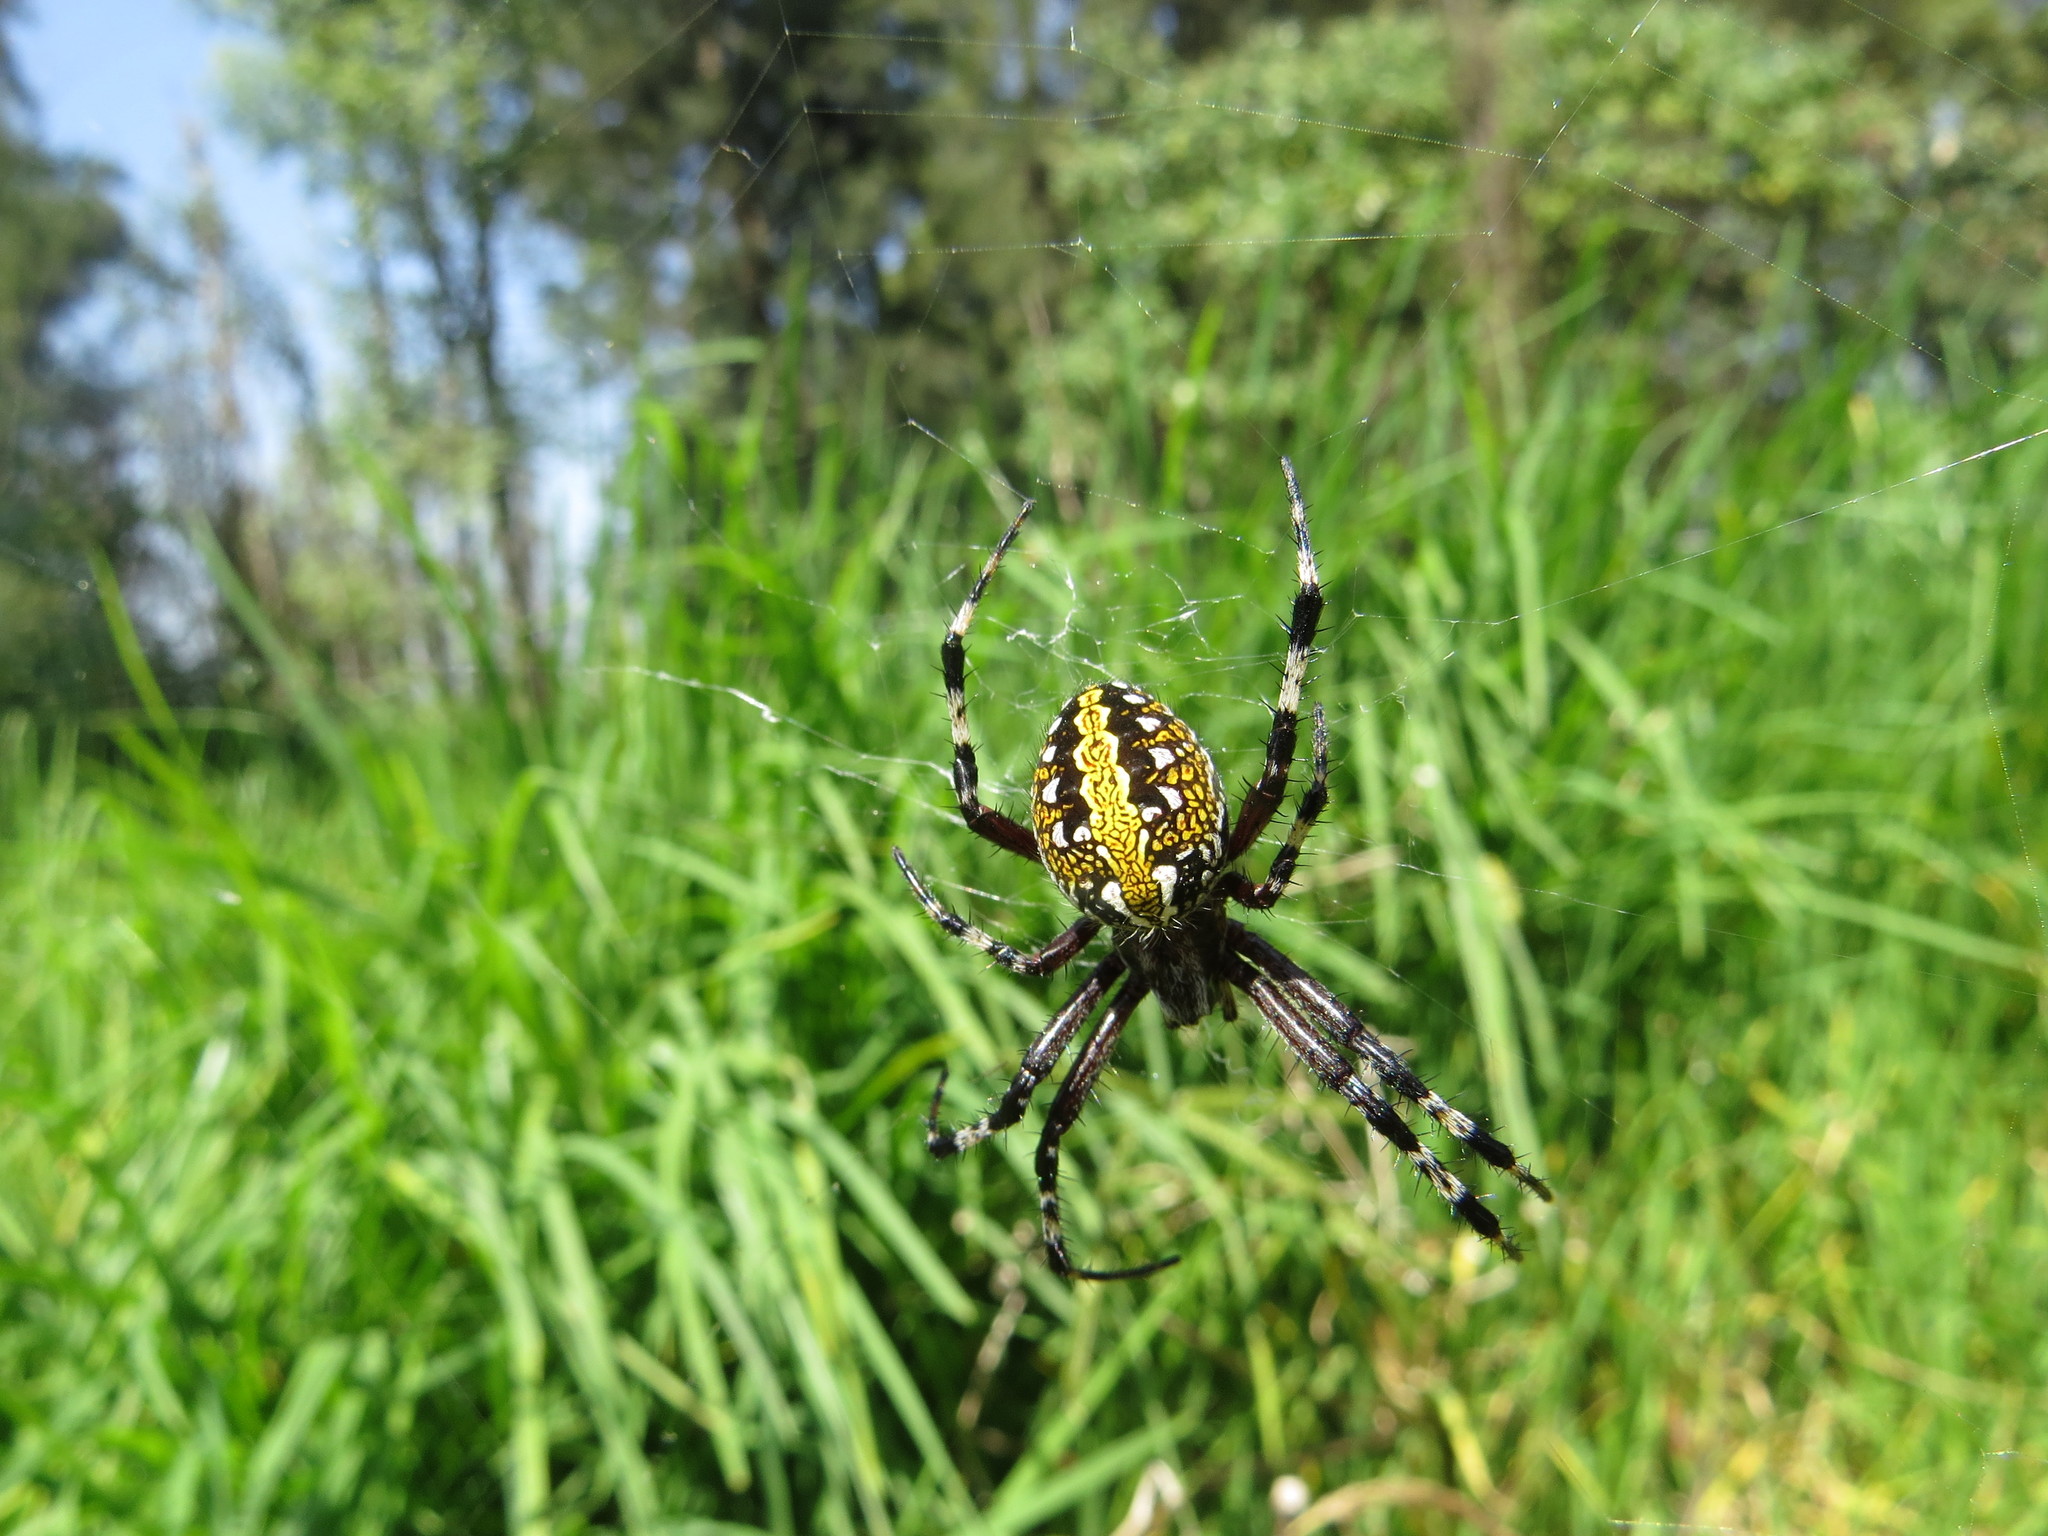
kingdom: Animalia
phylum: Arthropoda
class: Arachnida
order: Araneae
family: Araneidae
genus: Neoscona
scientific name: Neoscona oaxacensis
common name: Orb weavers
